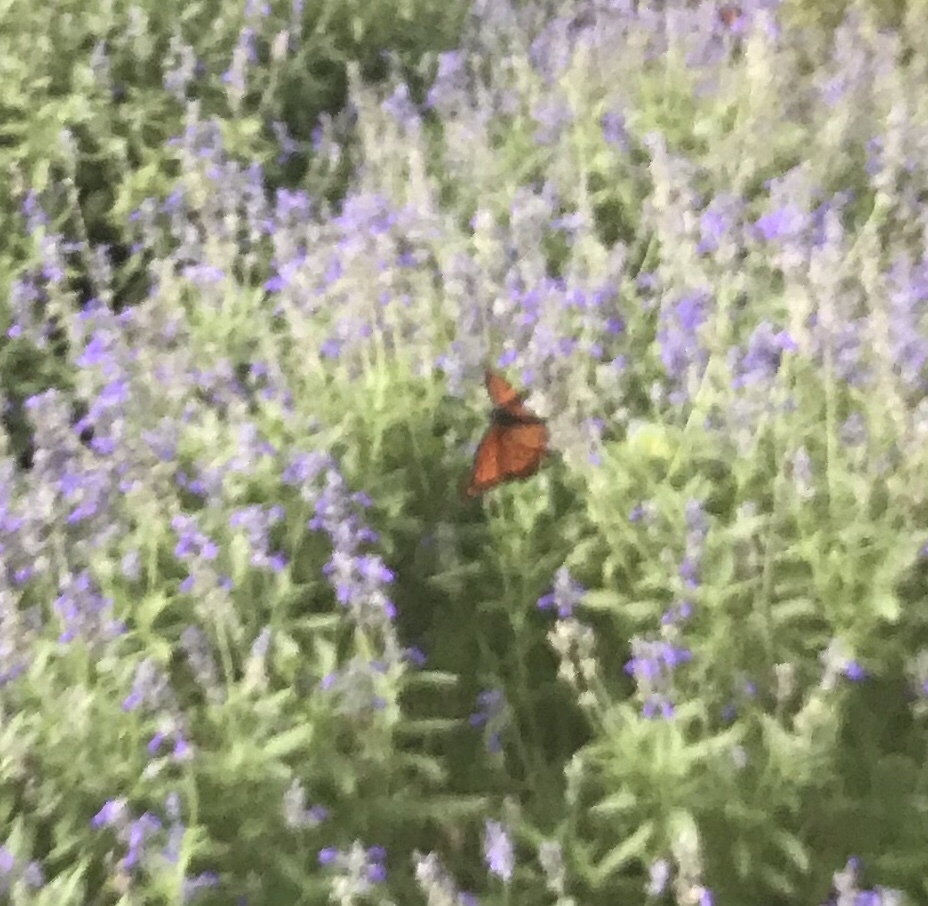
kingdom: Animalia
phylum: Arthropoda
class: Insecta
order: Lepidoptera
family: Nymphalidae
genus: Danaus
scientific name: Danaus plexippus
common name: Monarch
